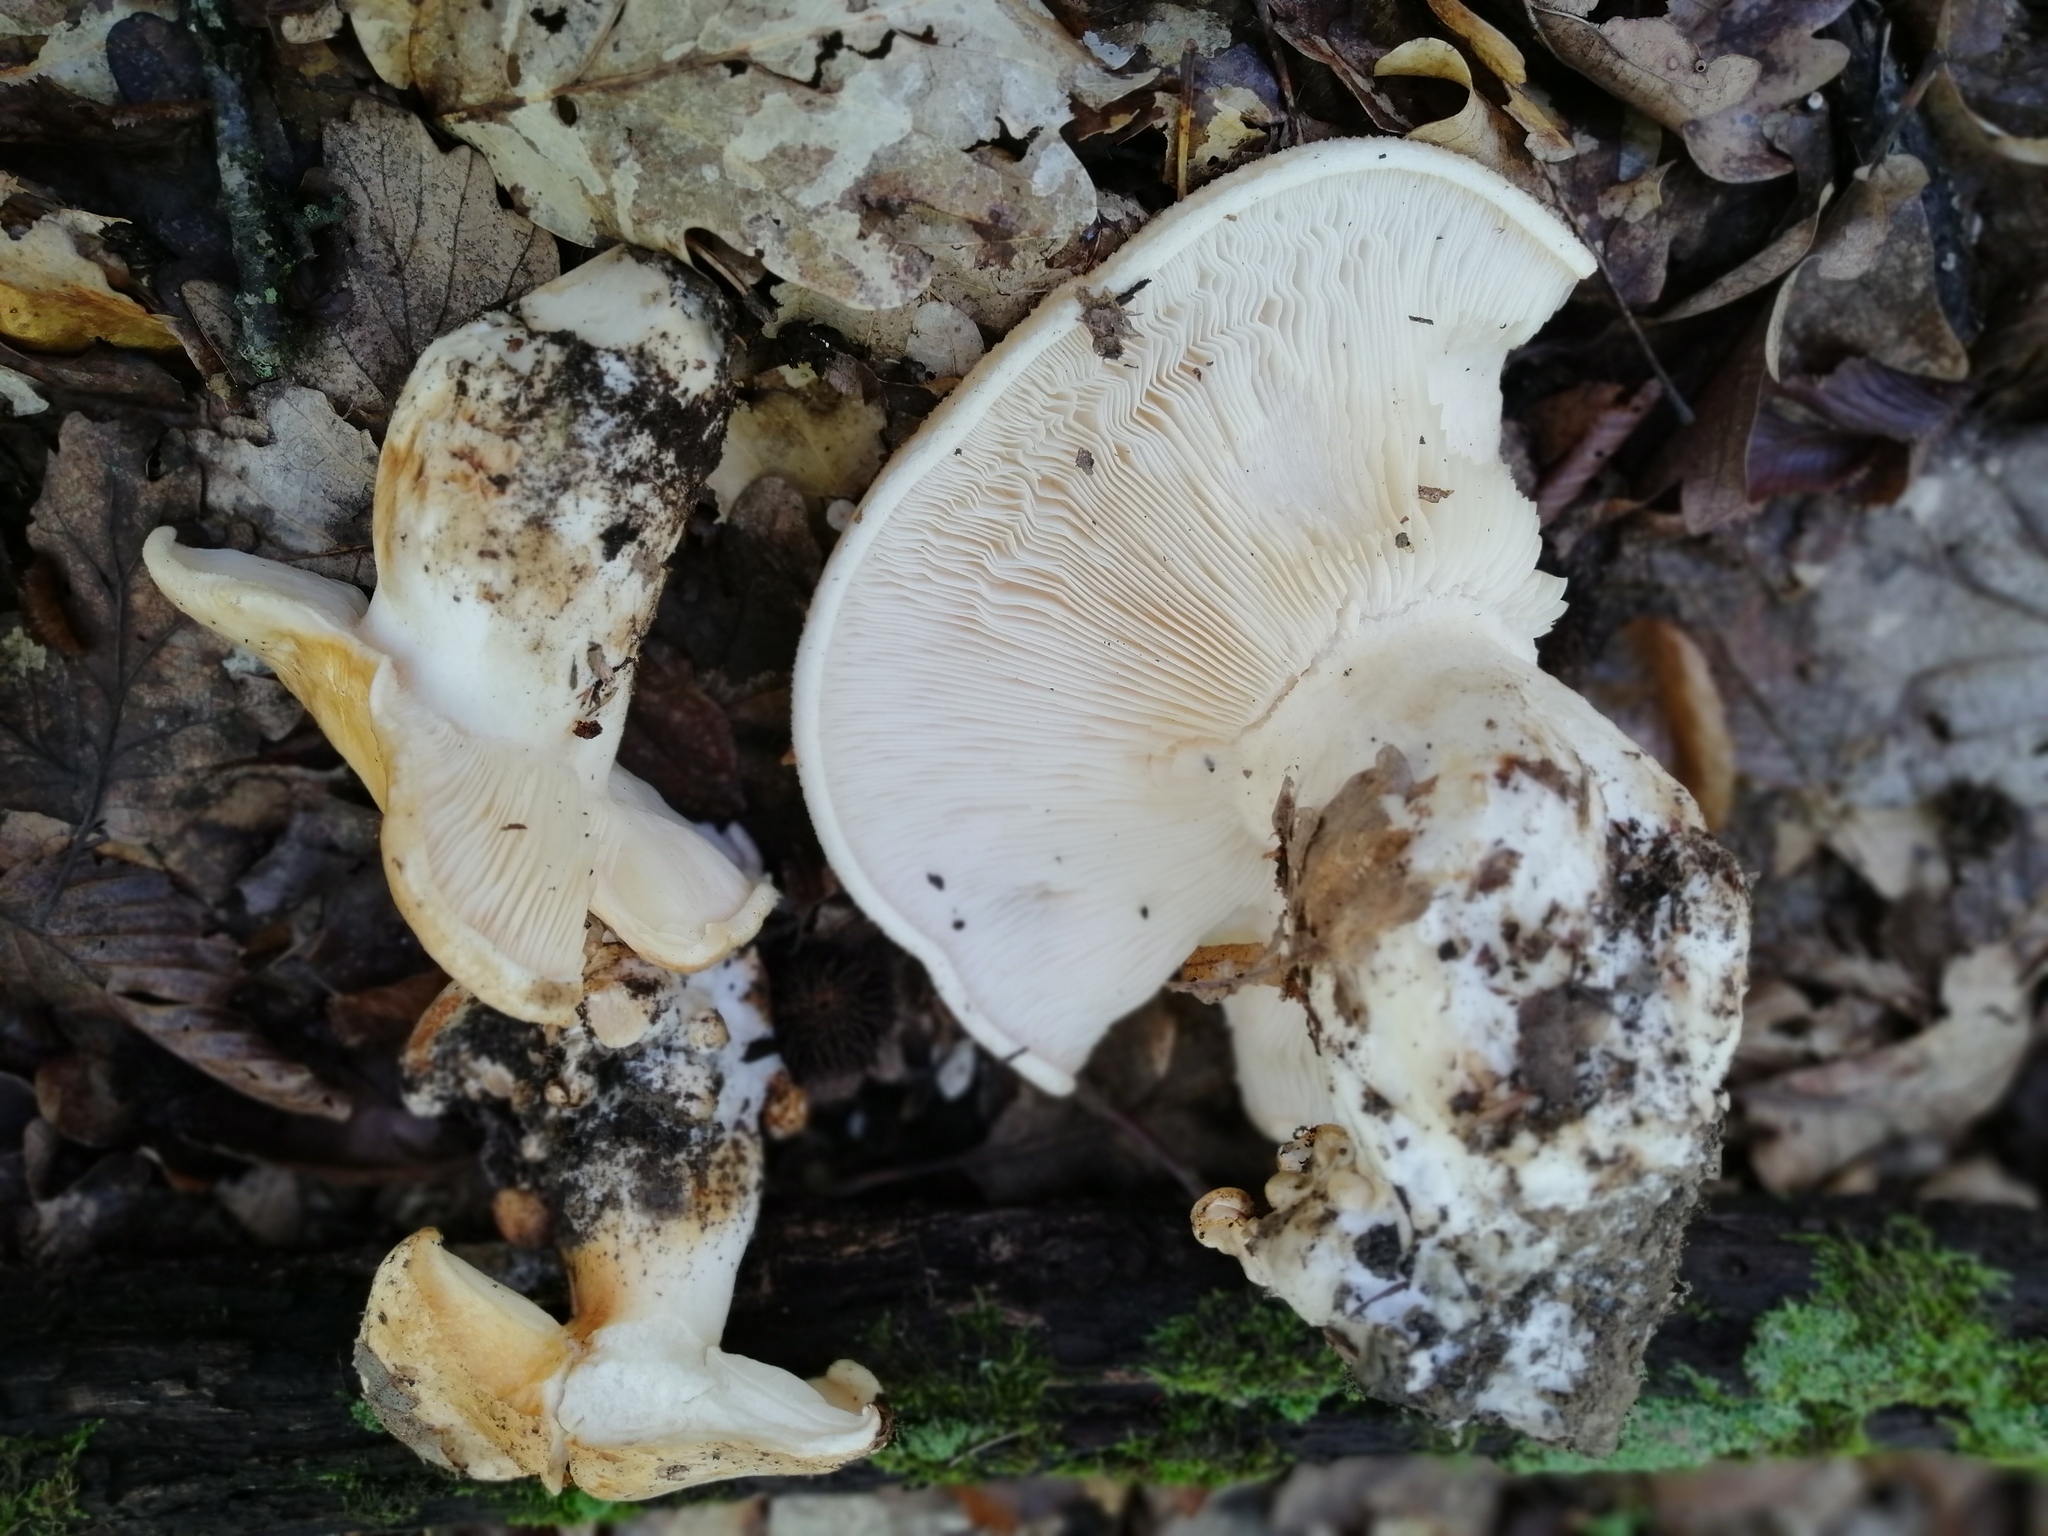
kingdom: Fungi
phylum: Basidiomycota
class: Agaricomycetes
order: Agaricales
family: Pseudoclitocybaceae
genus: Pogonoloma
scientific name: Pogonoloma macrorhizum
